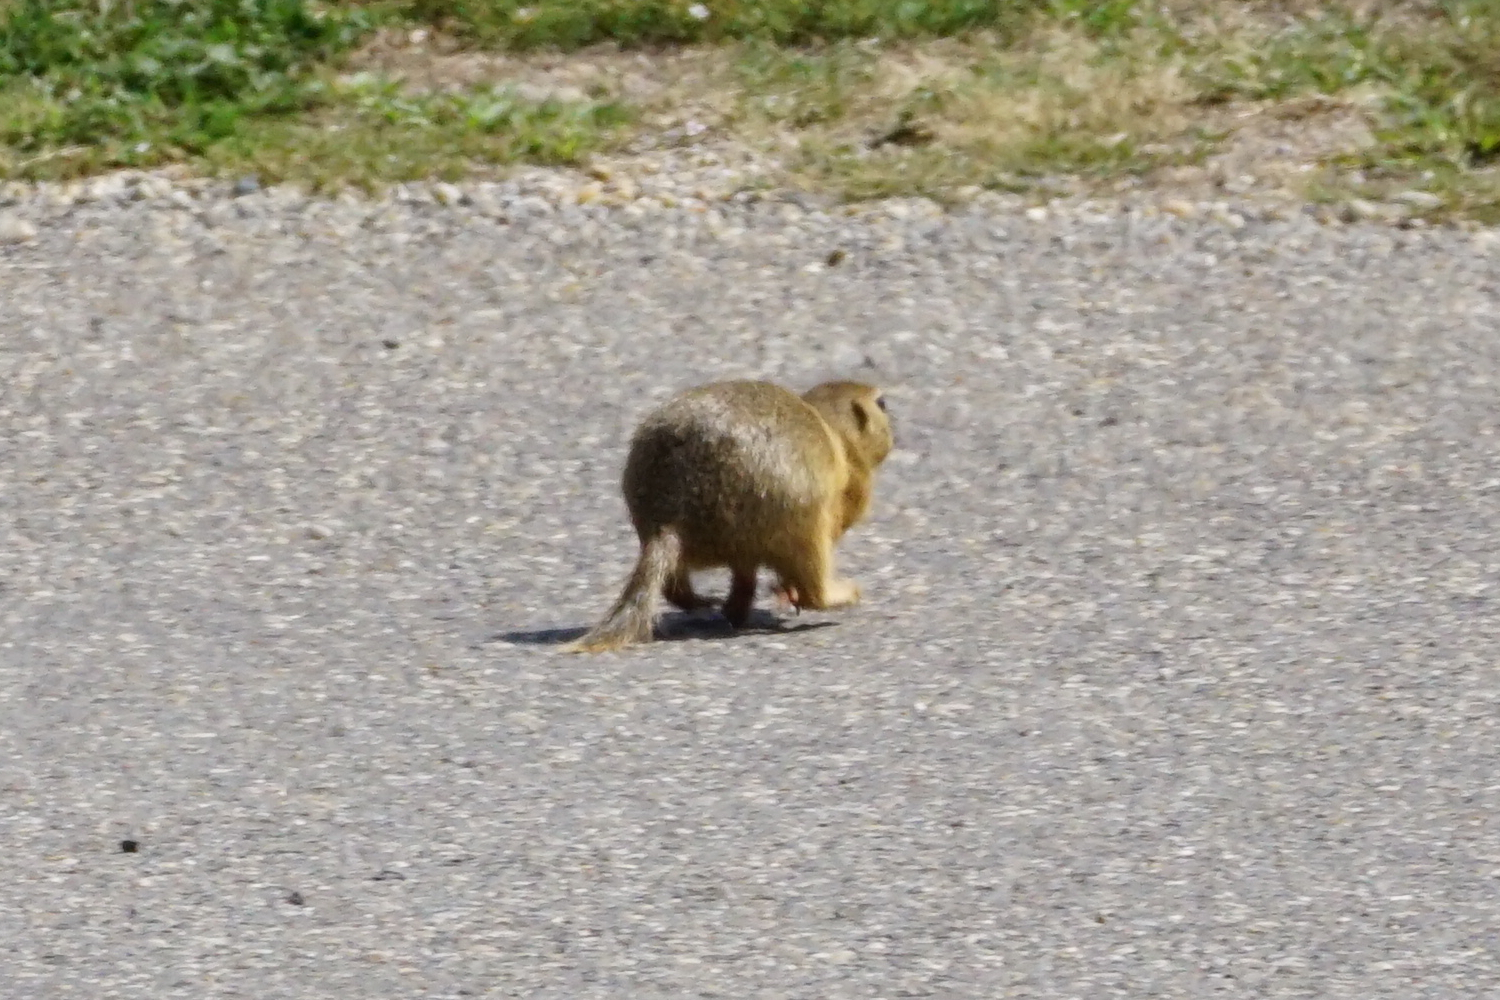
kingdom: Animalia
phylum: Chordata
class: Mammalia
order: Rodentia
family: Sciuridae
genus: Spermophilus
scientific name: Spermophilus citellus
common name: European ground squirrel
